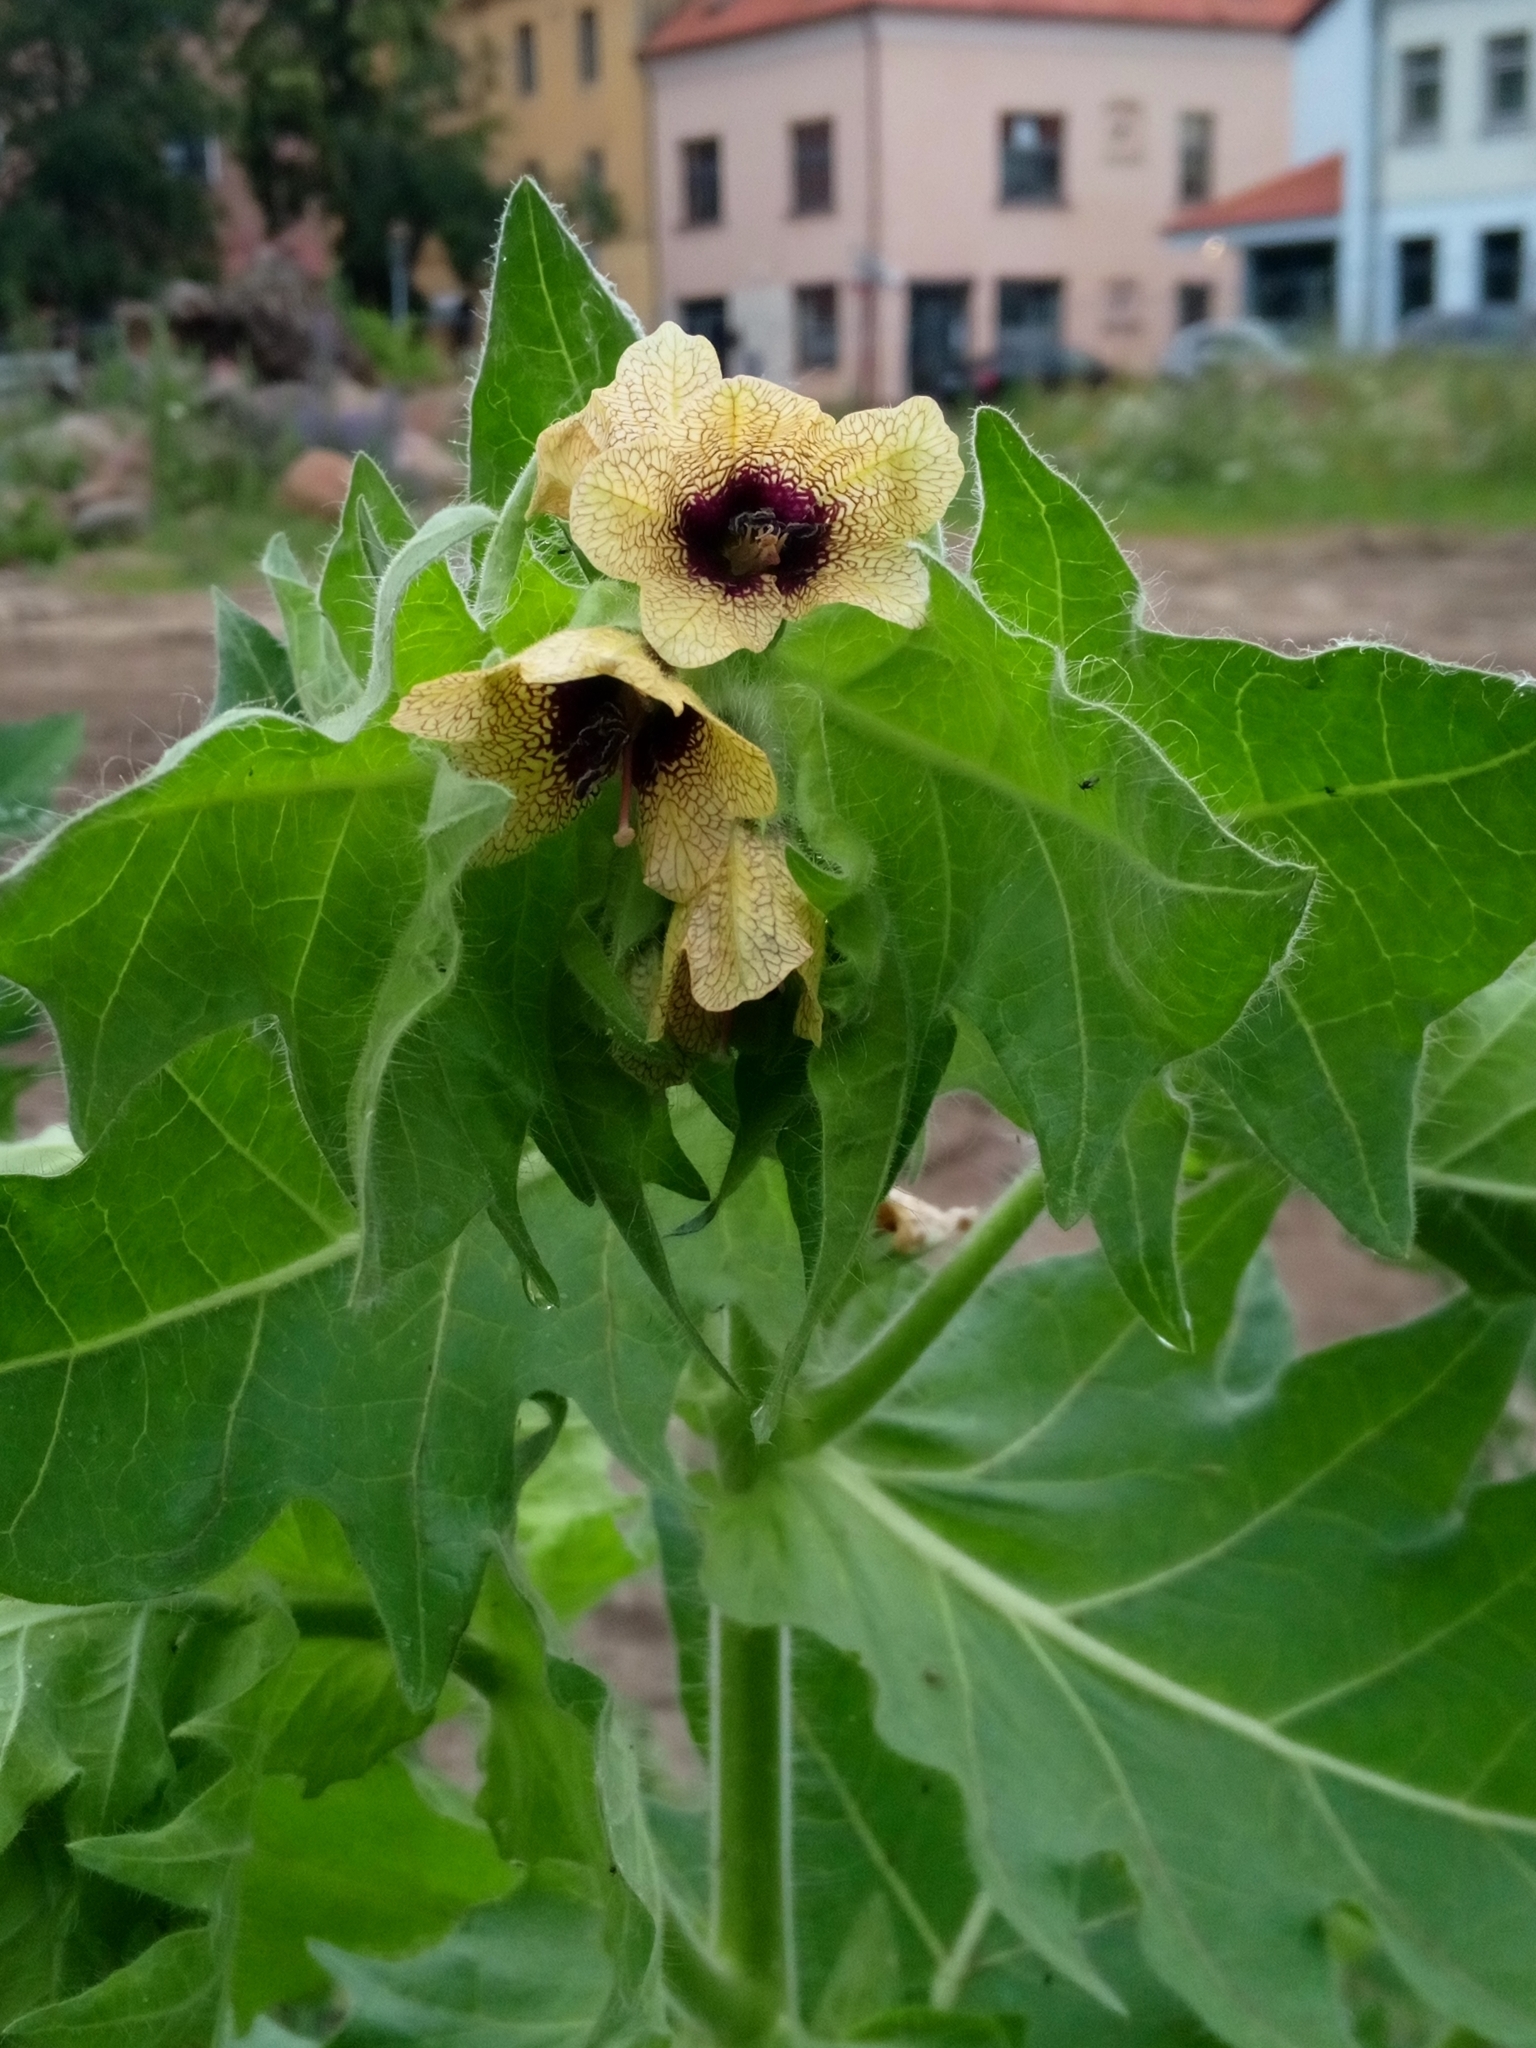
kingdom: Plantae
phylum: Tracheophyta
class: Magnoliopsida
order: Solanales
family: Solanaceae
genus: Hyoscyamus
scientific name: Hyoscyamus niger
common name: Henbane
